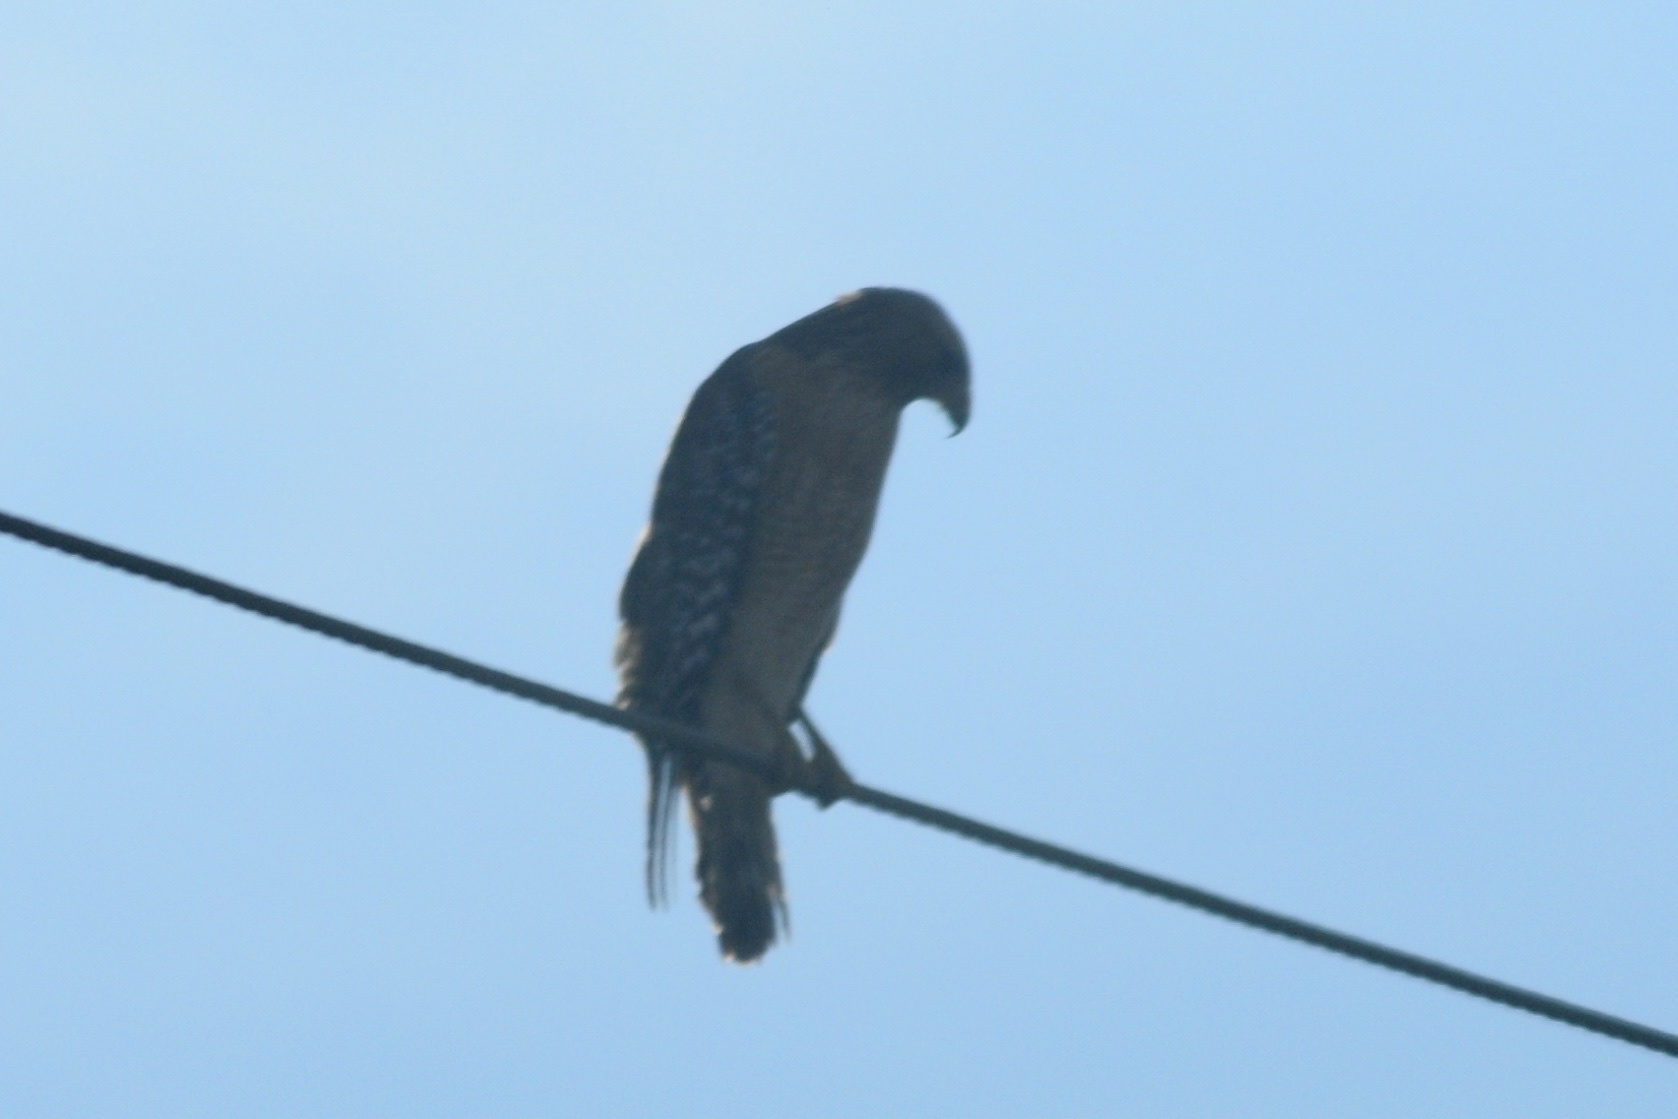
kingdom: Animalia
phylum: Chordata
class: Aves
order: Accipitriformes
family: Accipitridae
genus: Buteo
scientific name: Buteo lineatus
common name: Red-shouldered hawk
